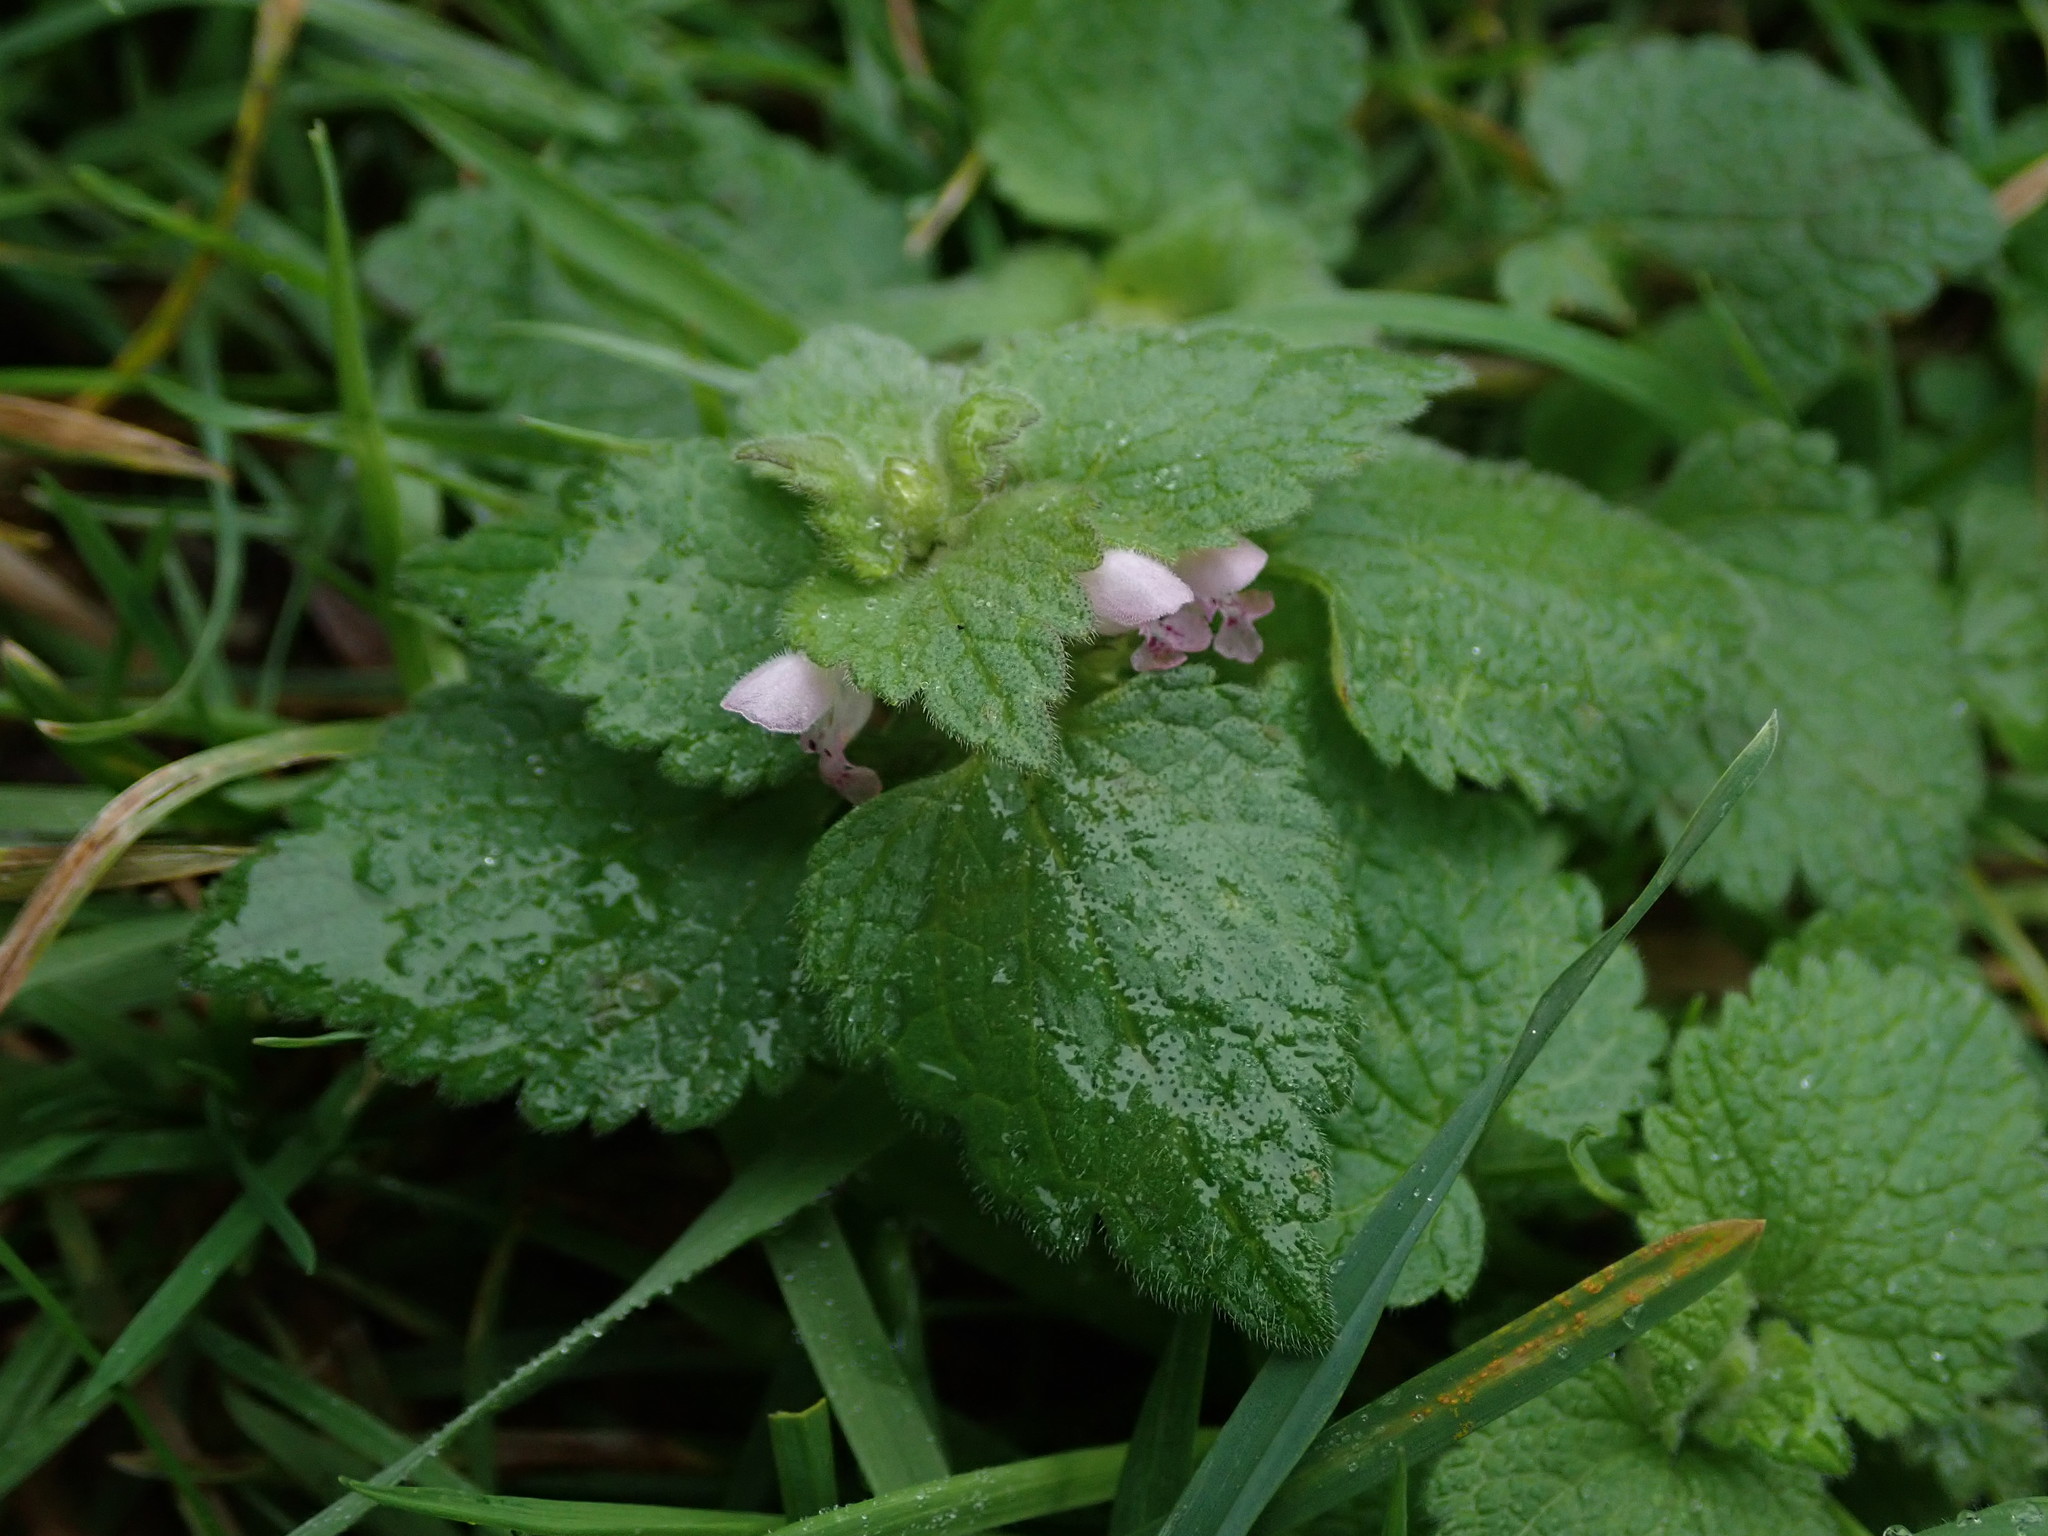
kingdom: Plantae
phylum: Tracheophyta
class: Magnoliopsida
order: Lamiales
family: Lamiaceae
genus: Lamium
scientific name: Lamium purpureum
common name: Red dead-nettle
